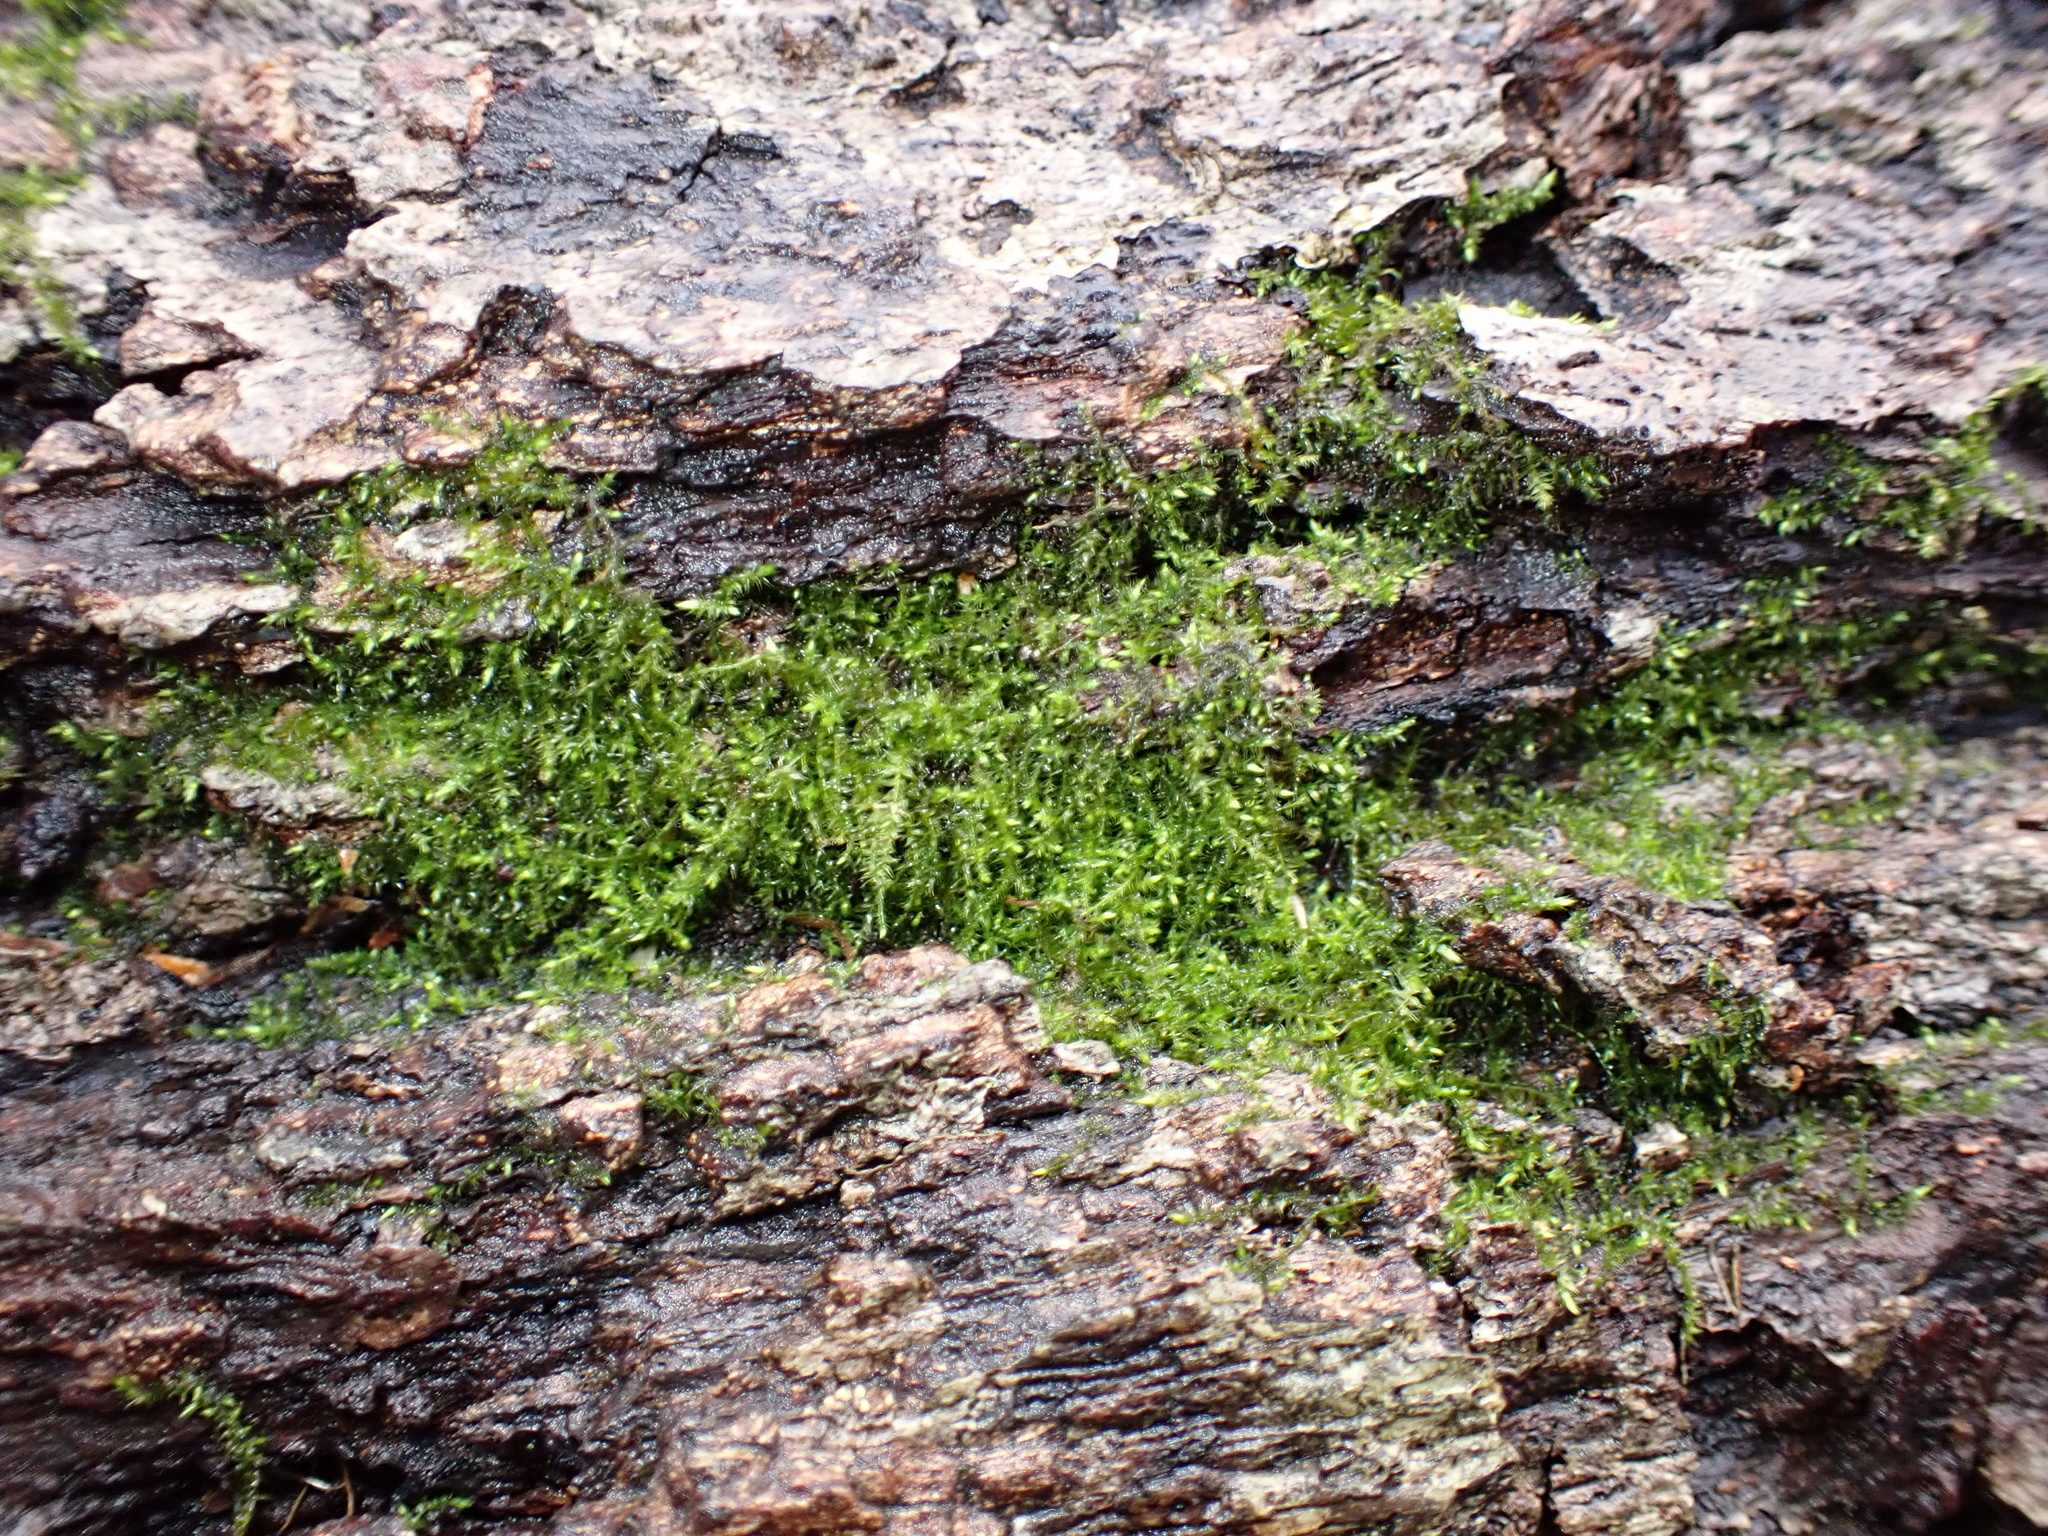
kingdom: Plantae
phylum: Bryophyta
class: Bryopsida
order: Hypnales
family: Plagiotheciaceae
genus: Plagiothecium
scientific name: Plagiothecium laetum
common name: Bright silk moss
